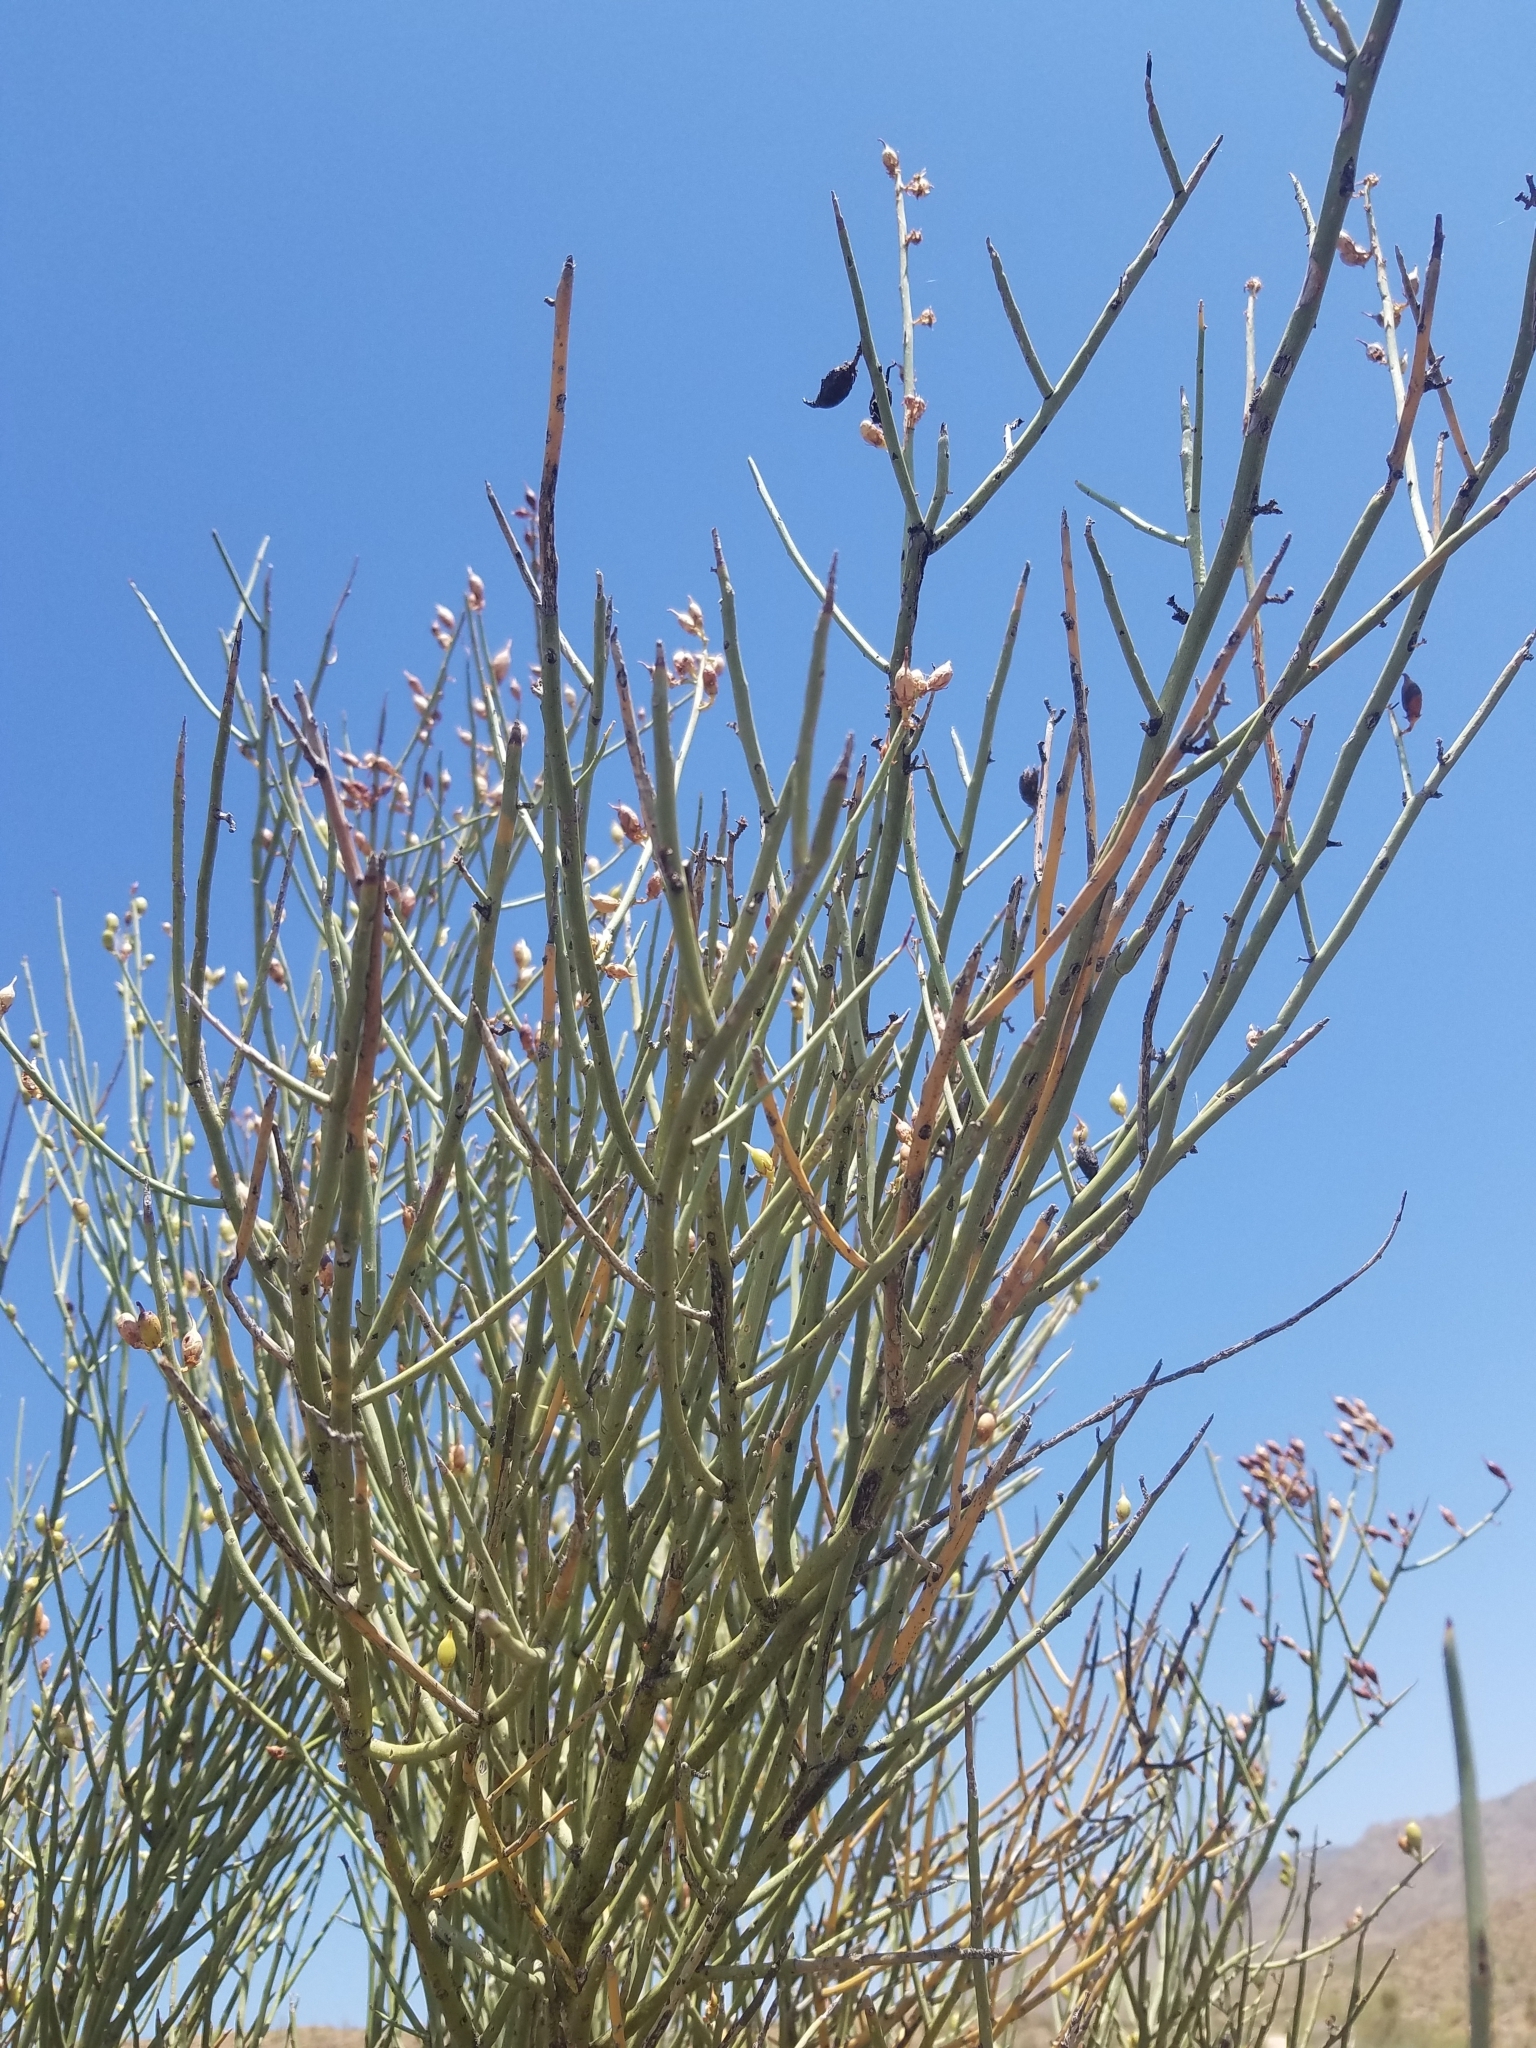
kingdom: Plantae
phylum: Tracheophyta
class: Magnoliopsida
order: Celastrales
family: Celastraceae
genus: Canotia
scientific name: Canotia holacantha
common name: Crucifixion thorns
